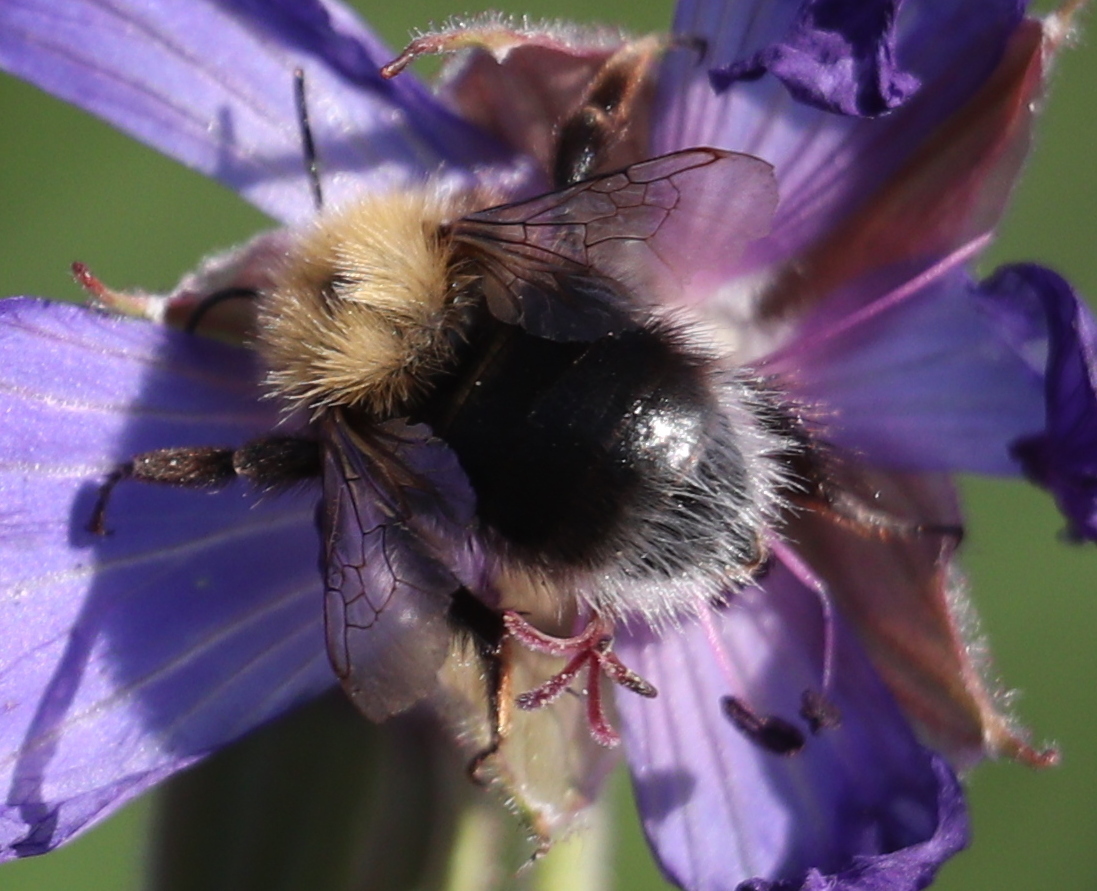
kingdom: Animalia
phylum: Arthropoda
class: Insecta
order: Hymenoptera
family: Apidae
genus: Bombus
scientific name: Bombus hypnorum
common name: New garden bumblebee
